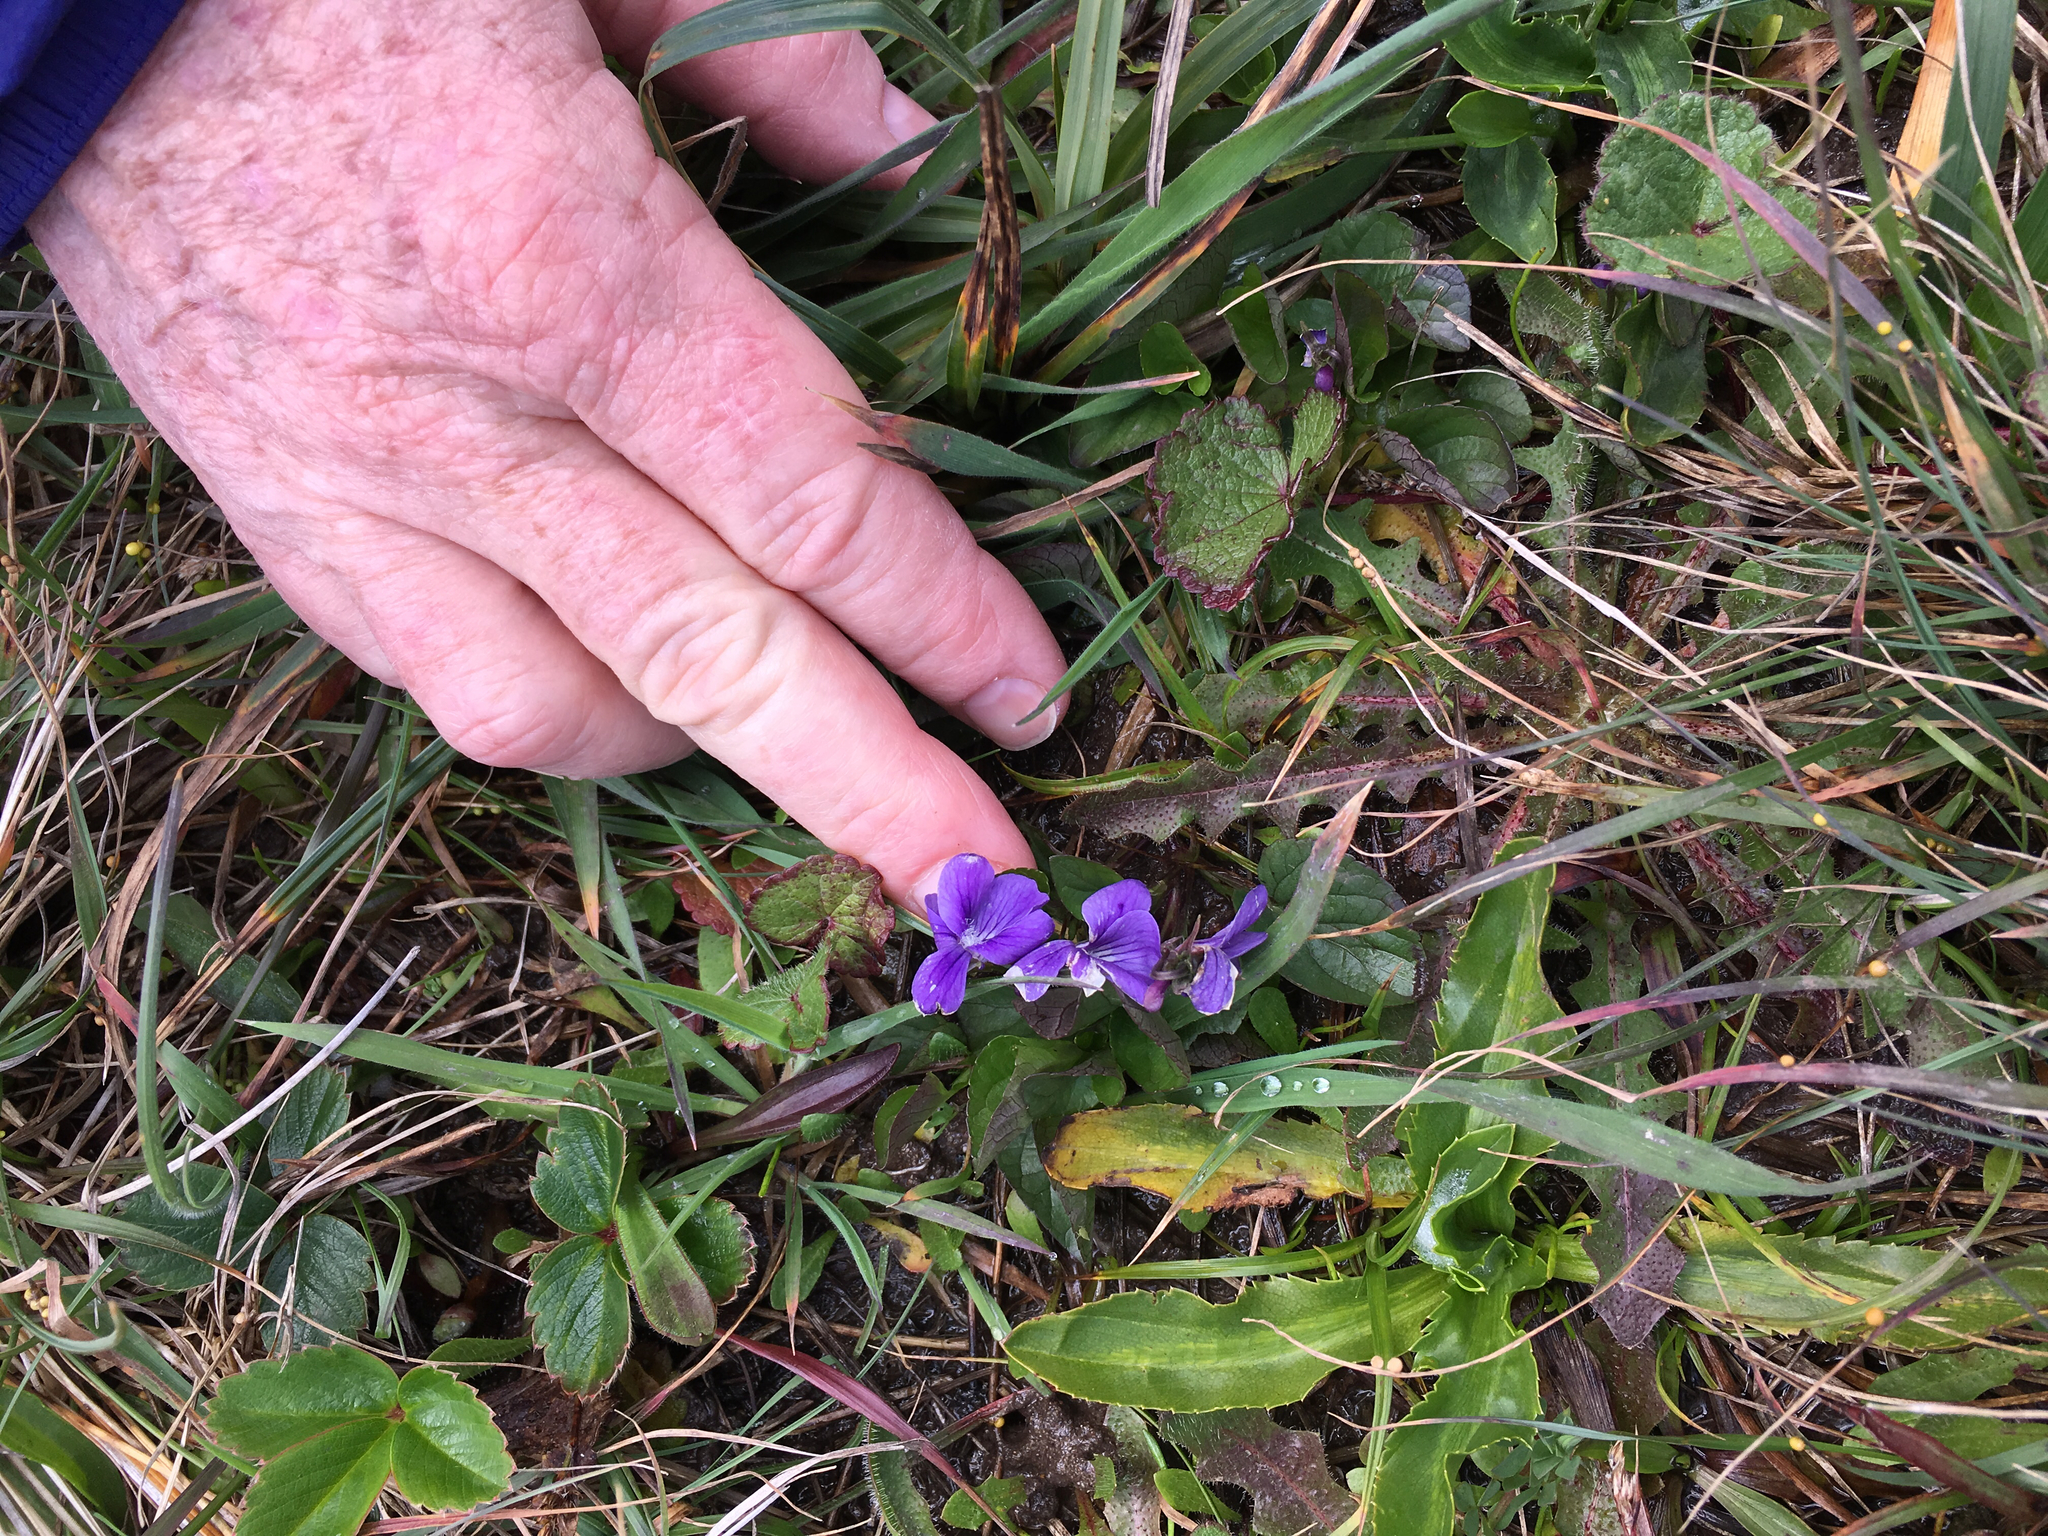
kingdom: Plantae
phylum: Tracheophyta
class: Magnoliopsida
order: Malpighiales
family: Violaceae
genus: Viola
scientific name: Viola adunca
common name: Sand violet
